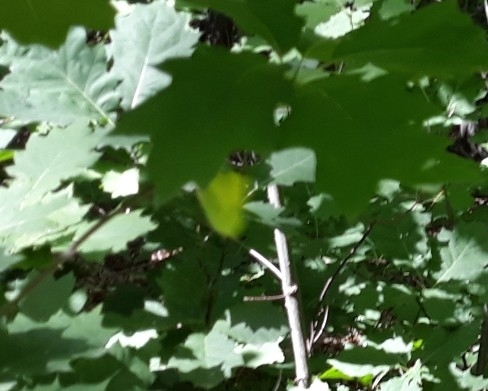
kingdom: Animalia
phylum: Arthropoda
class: Insecta
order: Lepidoptera
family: Pieridae
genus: Gonepteryx
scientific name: Gonepteryx rhamni
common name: Brimstone
